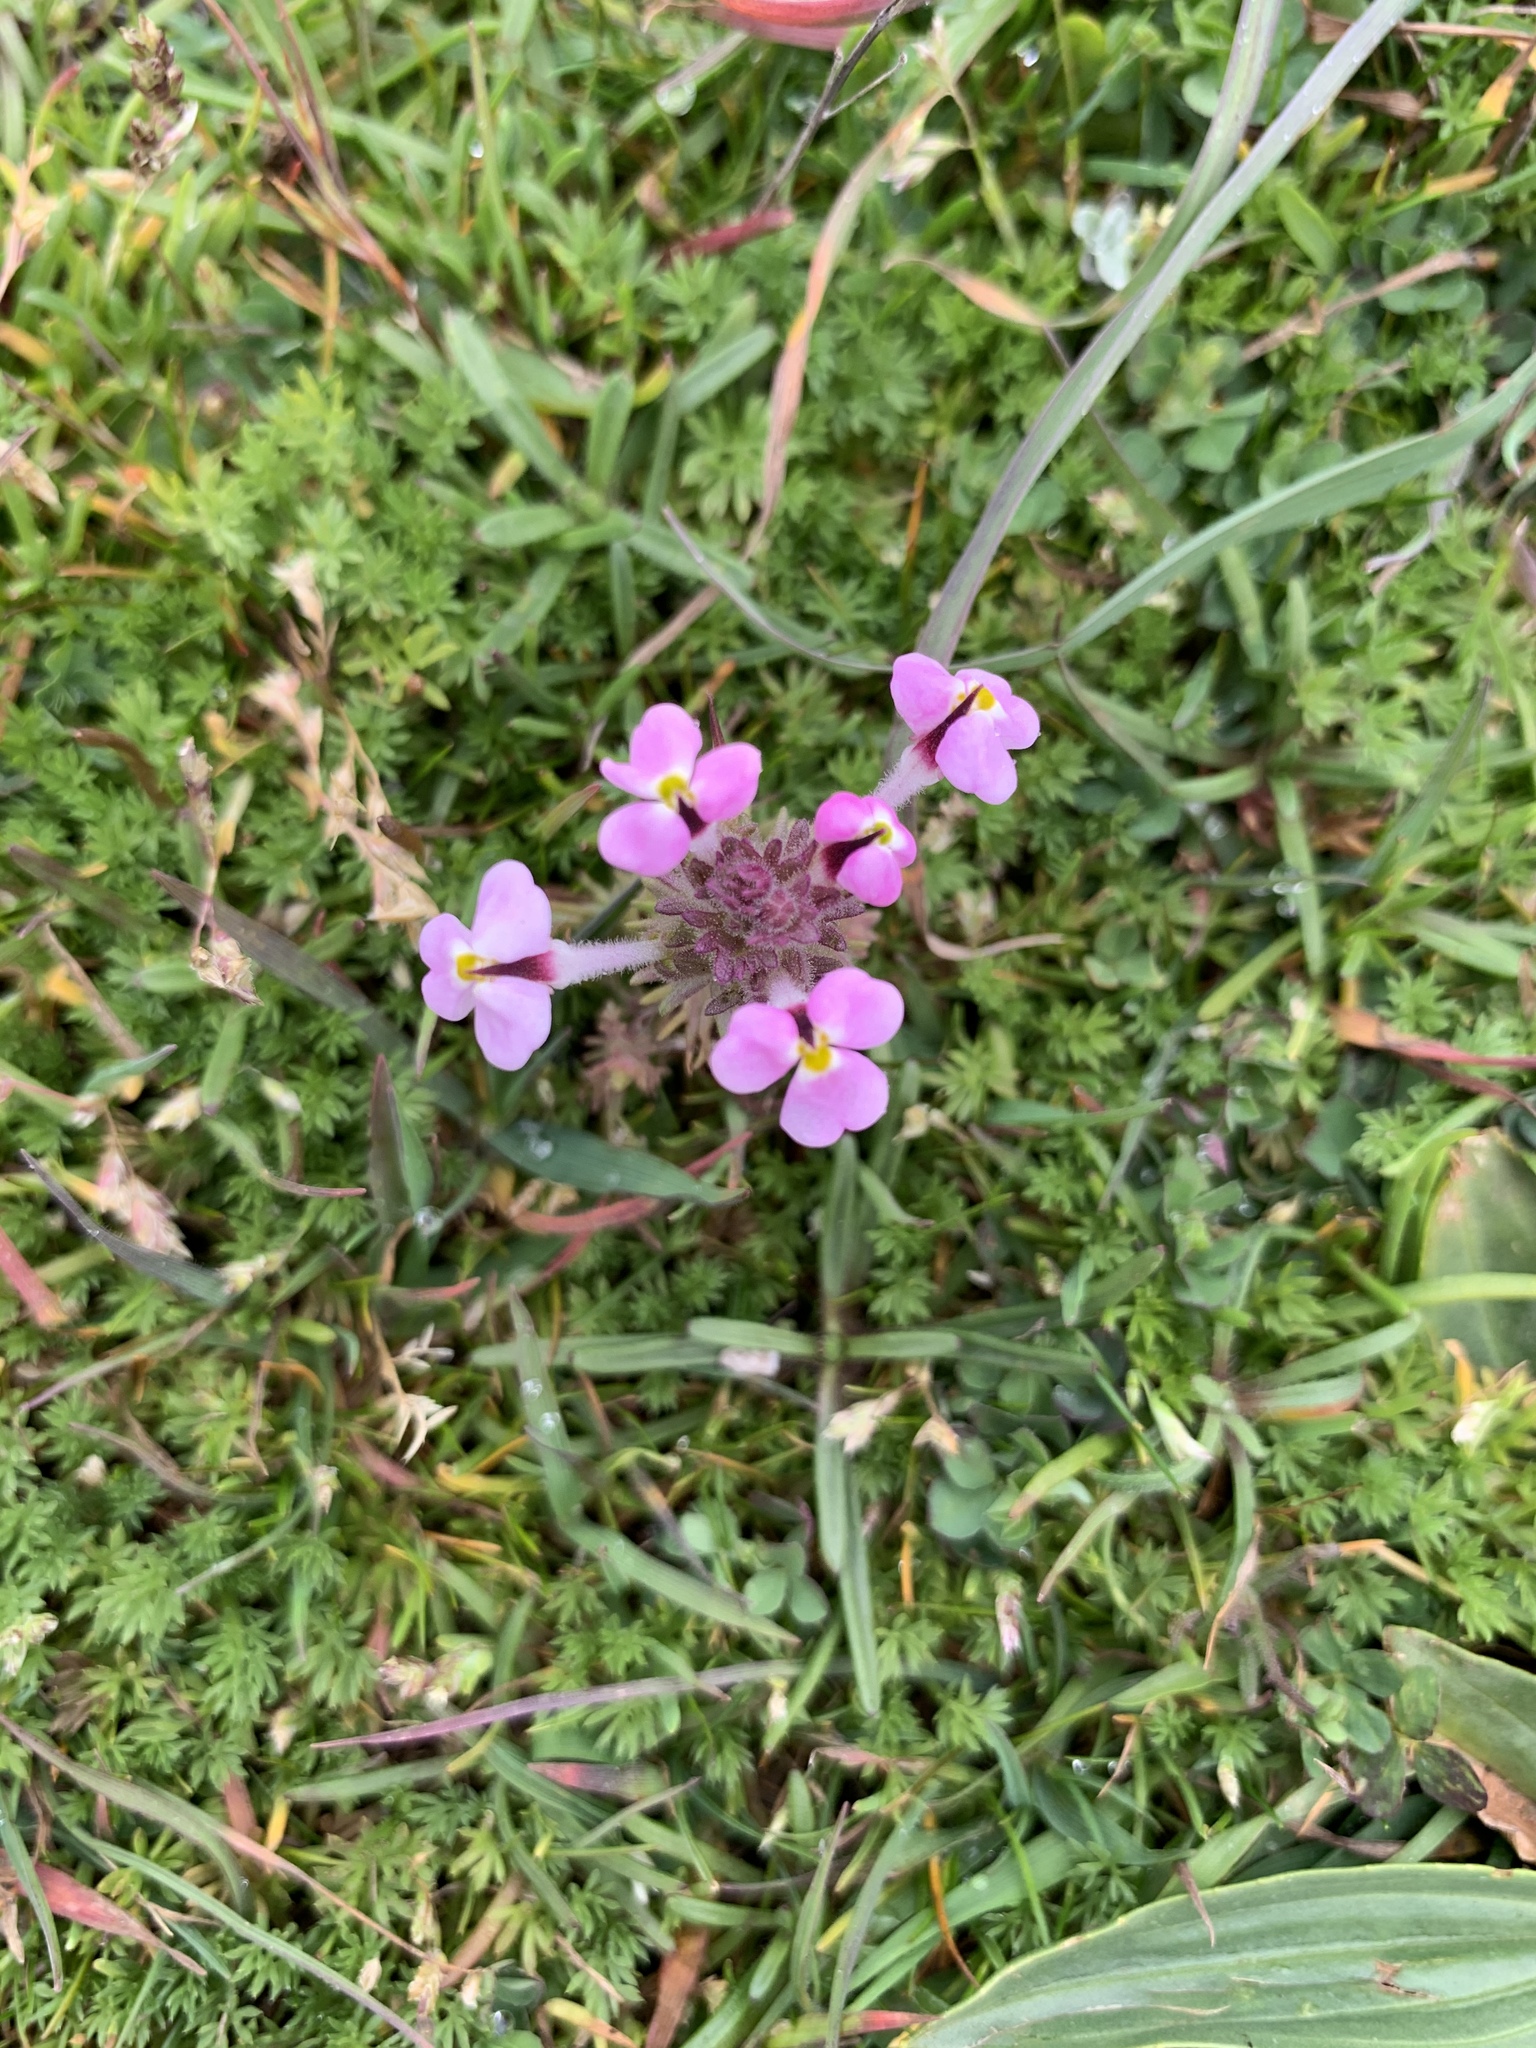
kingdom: Plantae
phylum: Tracheophyta
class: Magnoliopsida
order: Lamiales
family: Orobanchaceae
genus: Triphysaria
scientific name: Triphysaria eriantha
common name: Johnny-tuck
